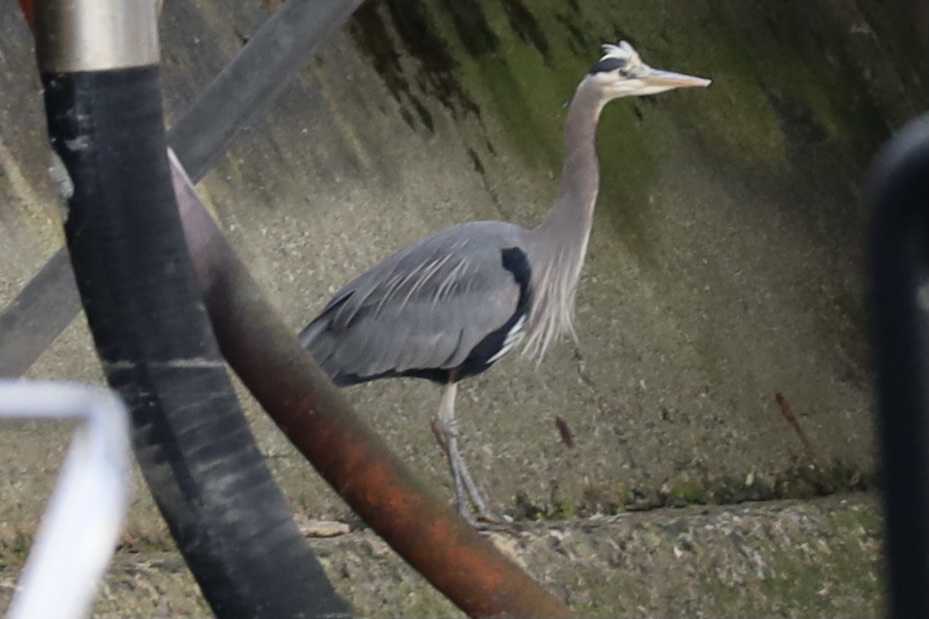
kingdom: Animalia
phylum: Chordata
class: Aves
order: Pelecaniformes
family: Ardeidae
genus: Ardea
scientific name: Ardea herodias
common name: Great blue heron
